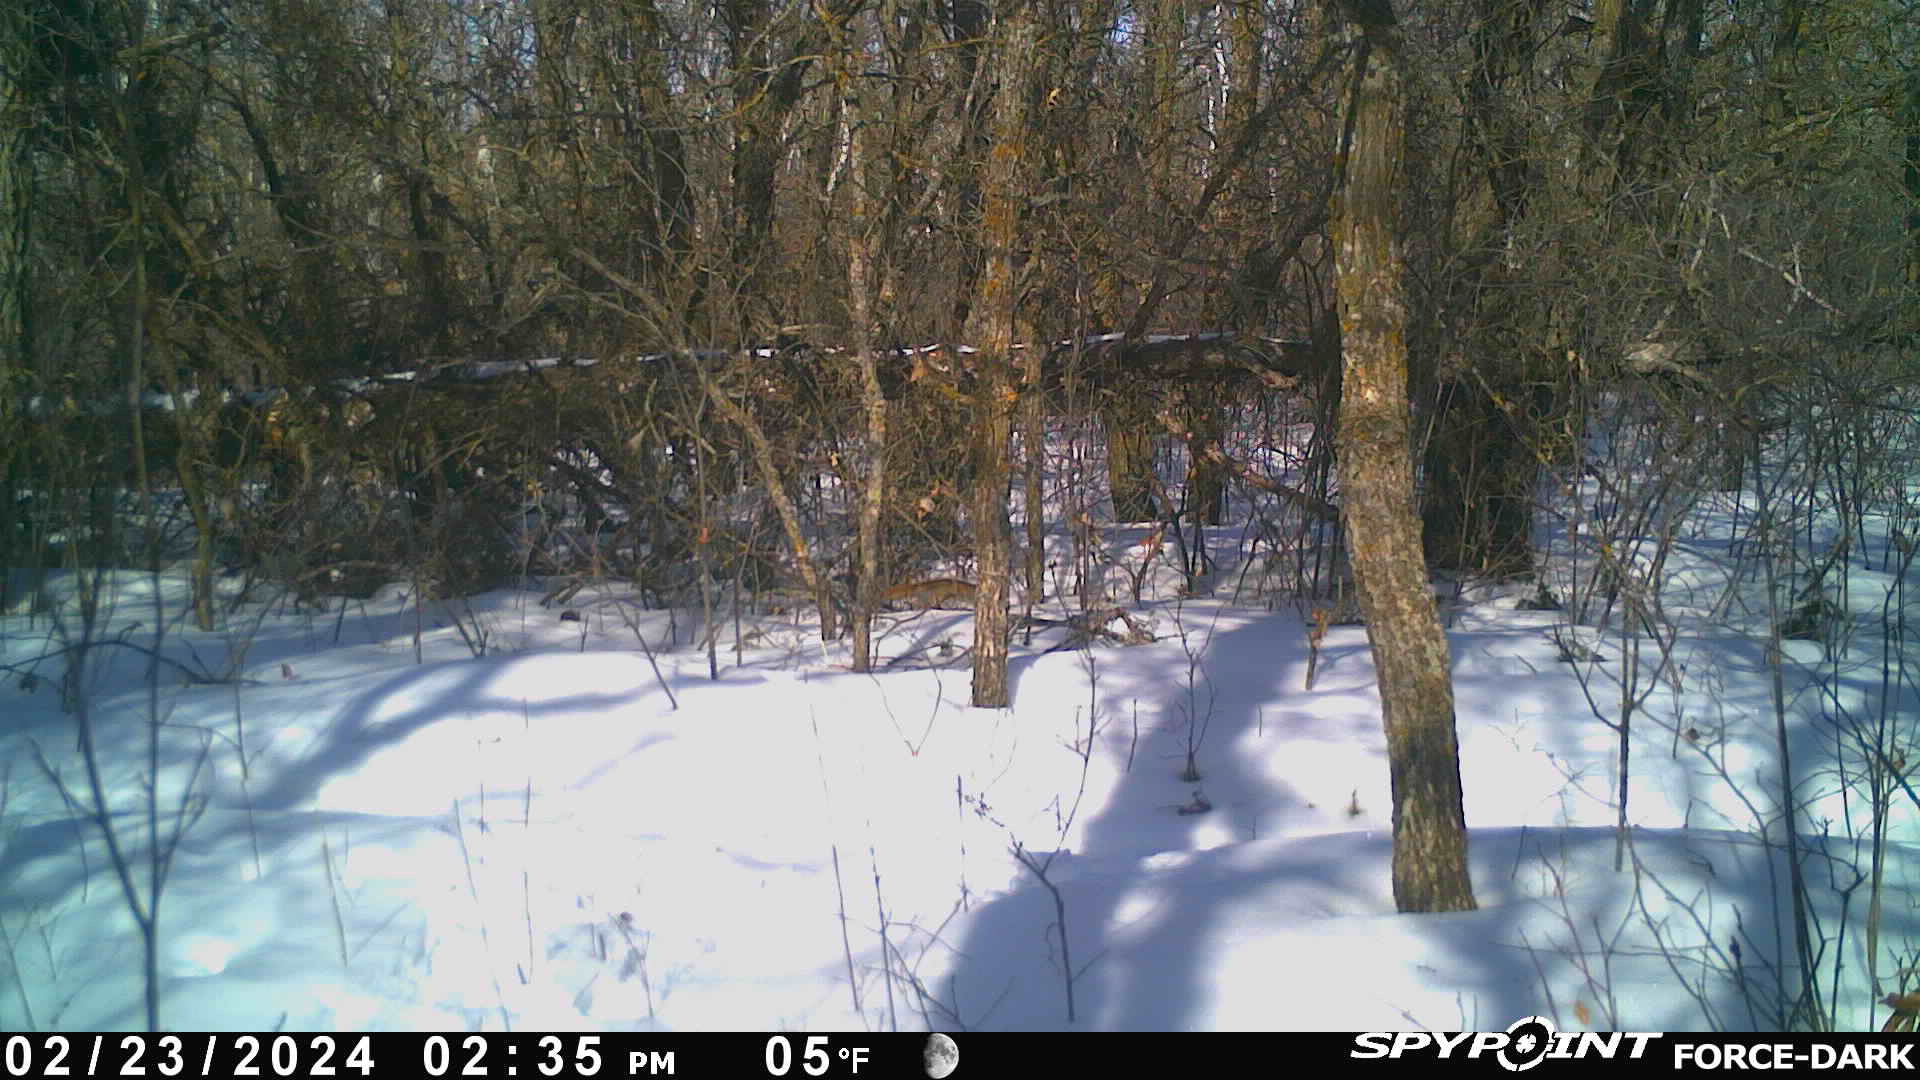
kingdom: Animalia
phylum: Chordata
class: Mammalia
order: Rodentia
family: Sciuridae
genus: Tamiasciurus
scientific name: Tamiasciurus hudsonicus
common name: Red squirrel
